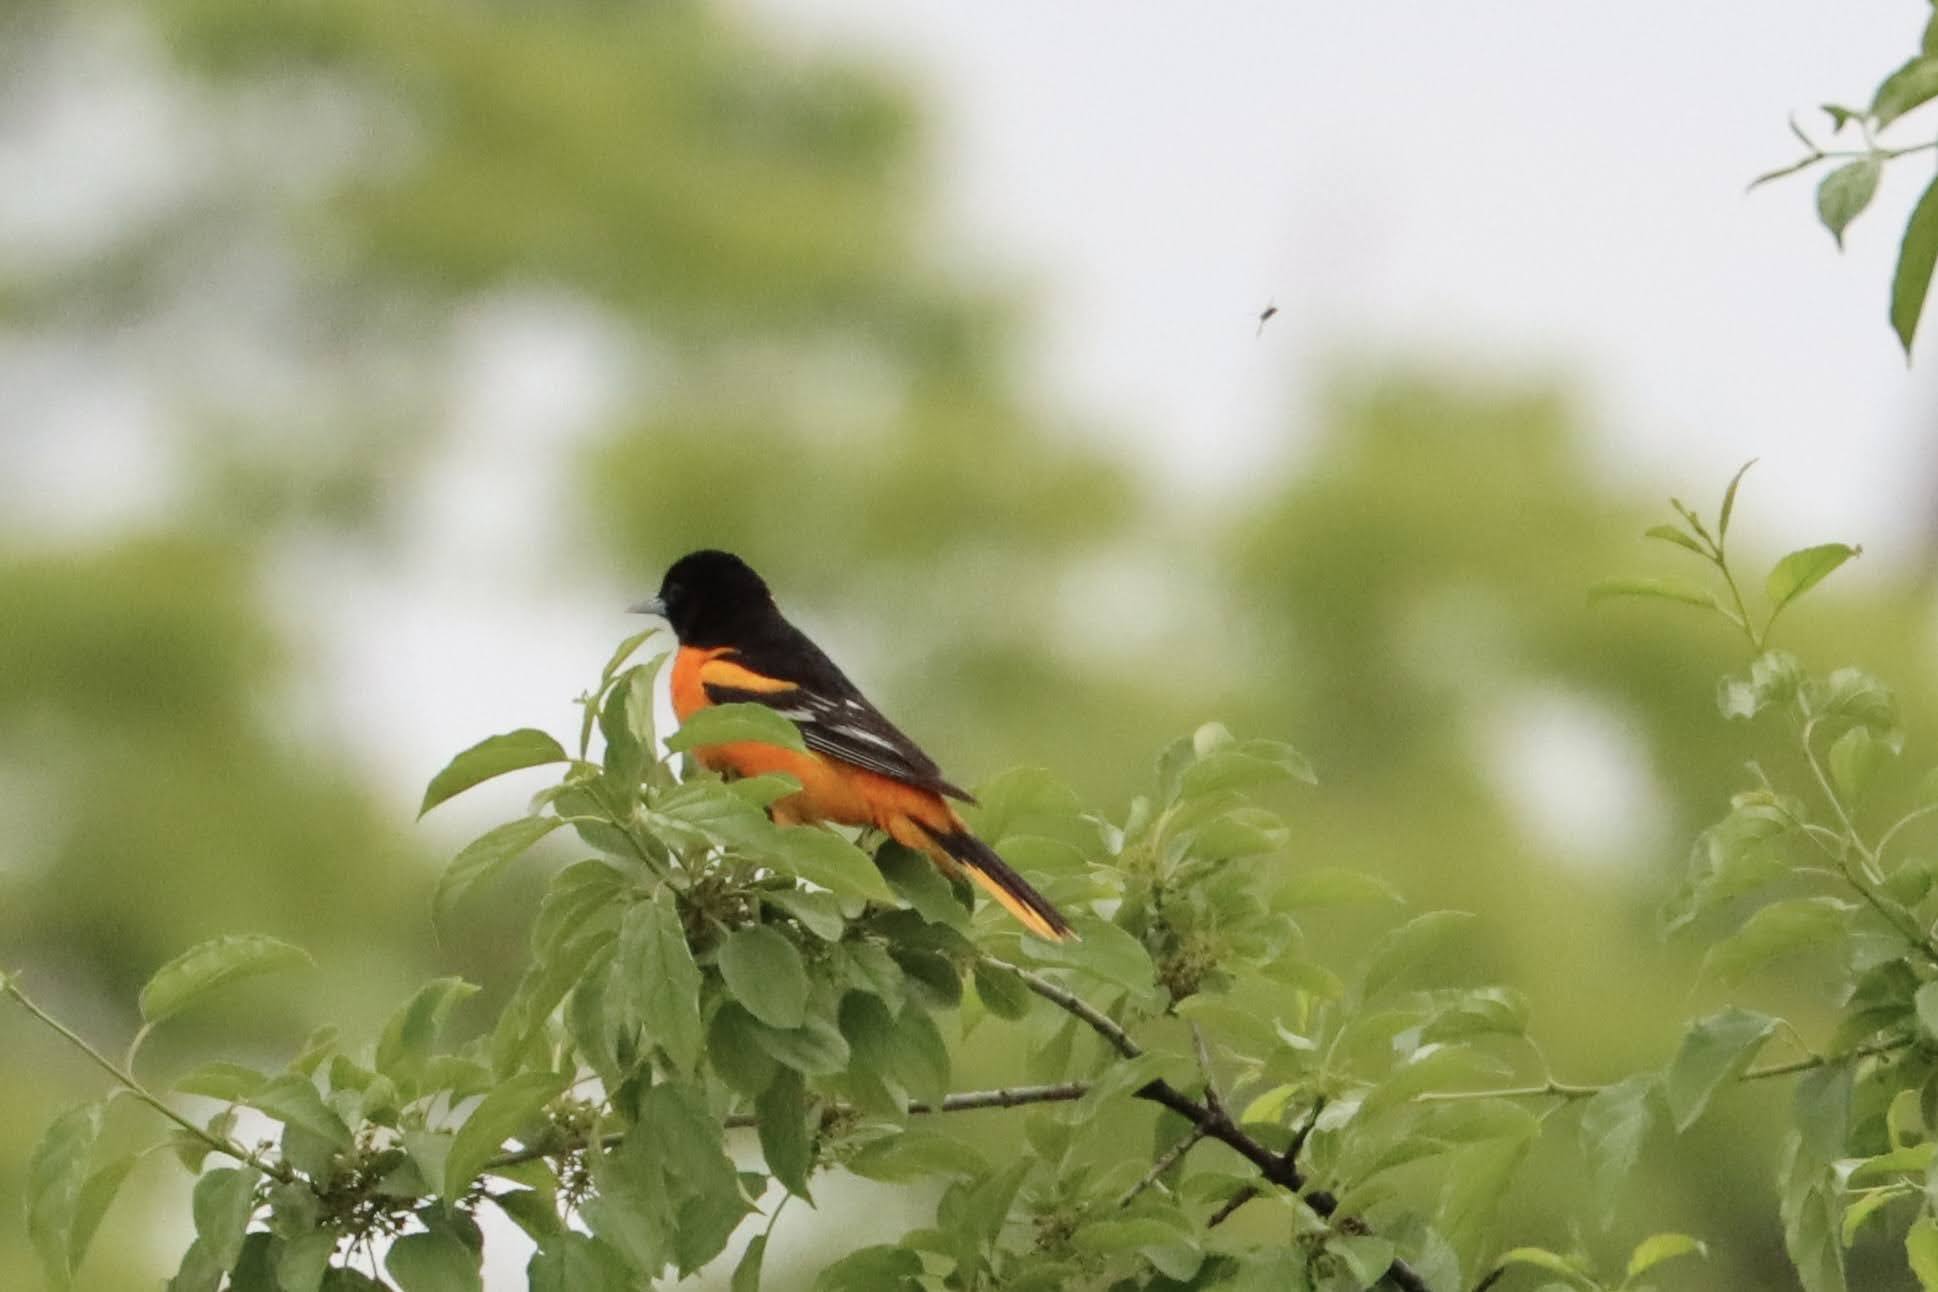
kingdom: Animalia
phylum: Chordata
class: Aves
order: Passeriformes
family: Icteridae
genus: Icterus
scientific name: Icterus galbula
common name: Baltimore oriole
